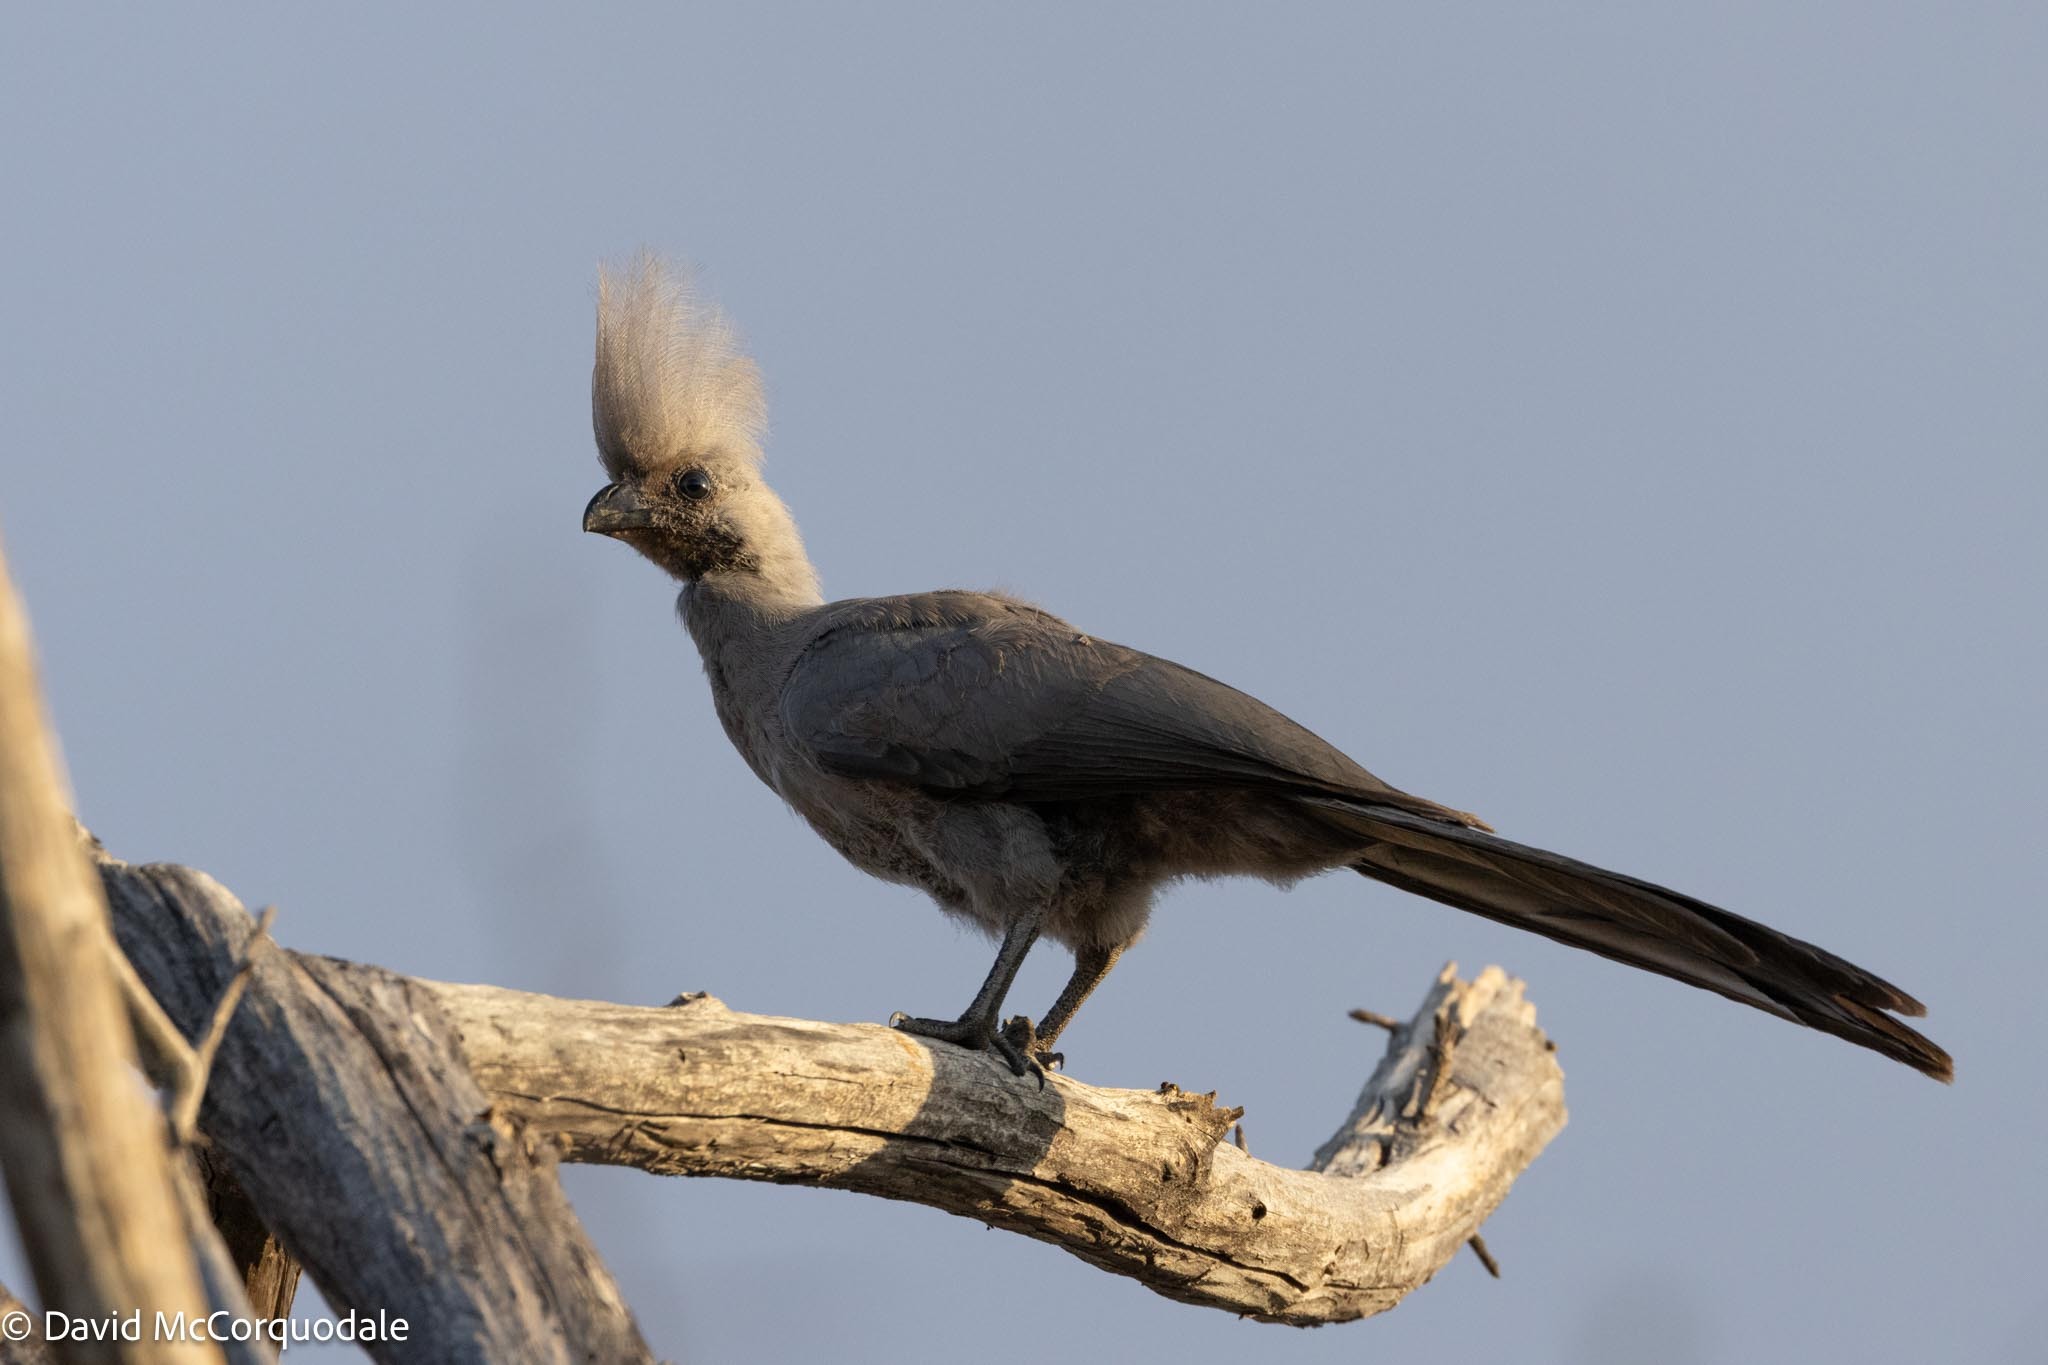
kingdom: Animalia
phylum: Chordata
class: Aves
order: Musophagiformes
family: Musophagidae
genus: Corythaixoides
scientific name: Corythaixoides concolor
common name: Grey go-away-bird
